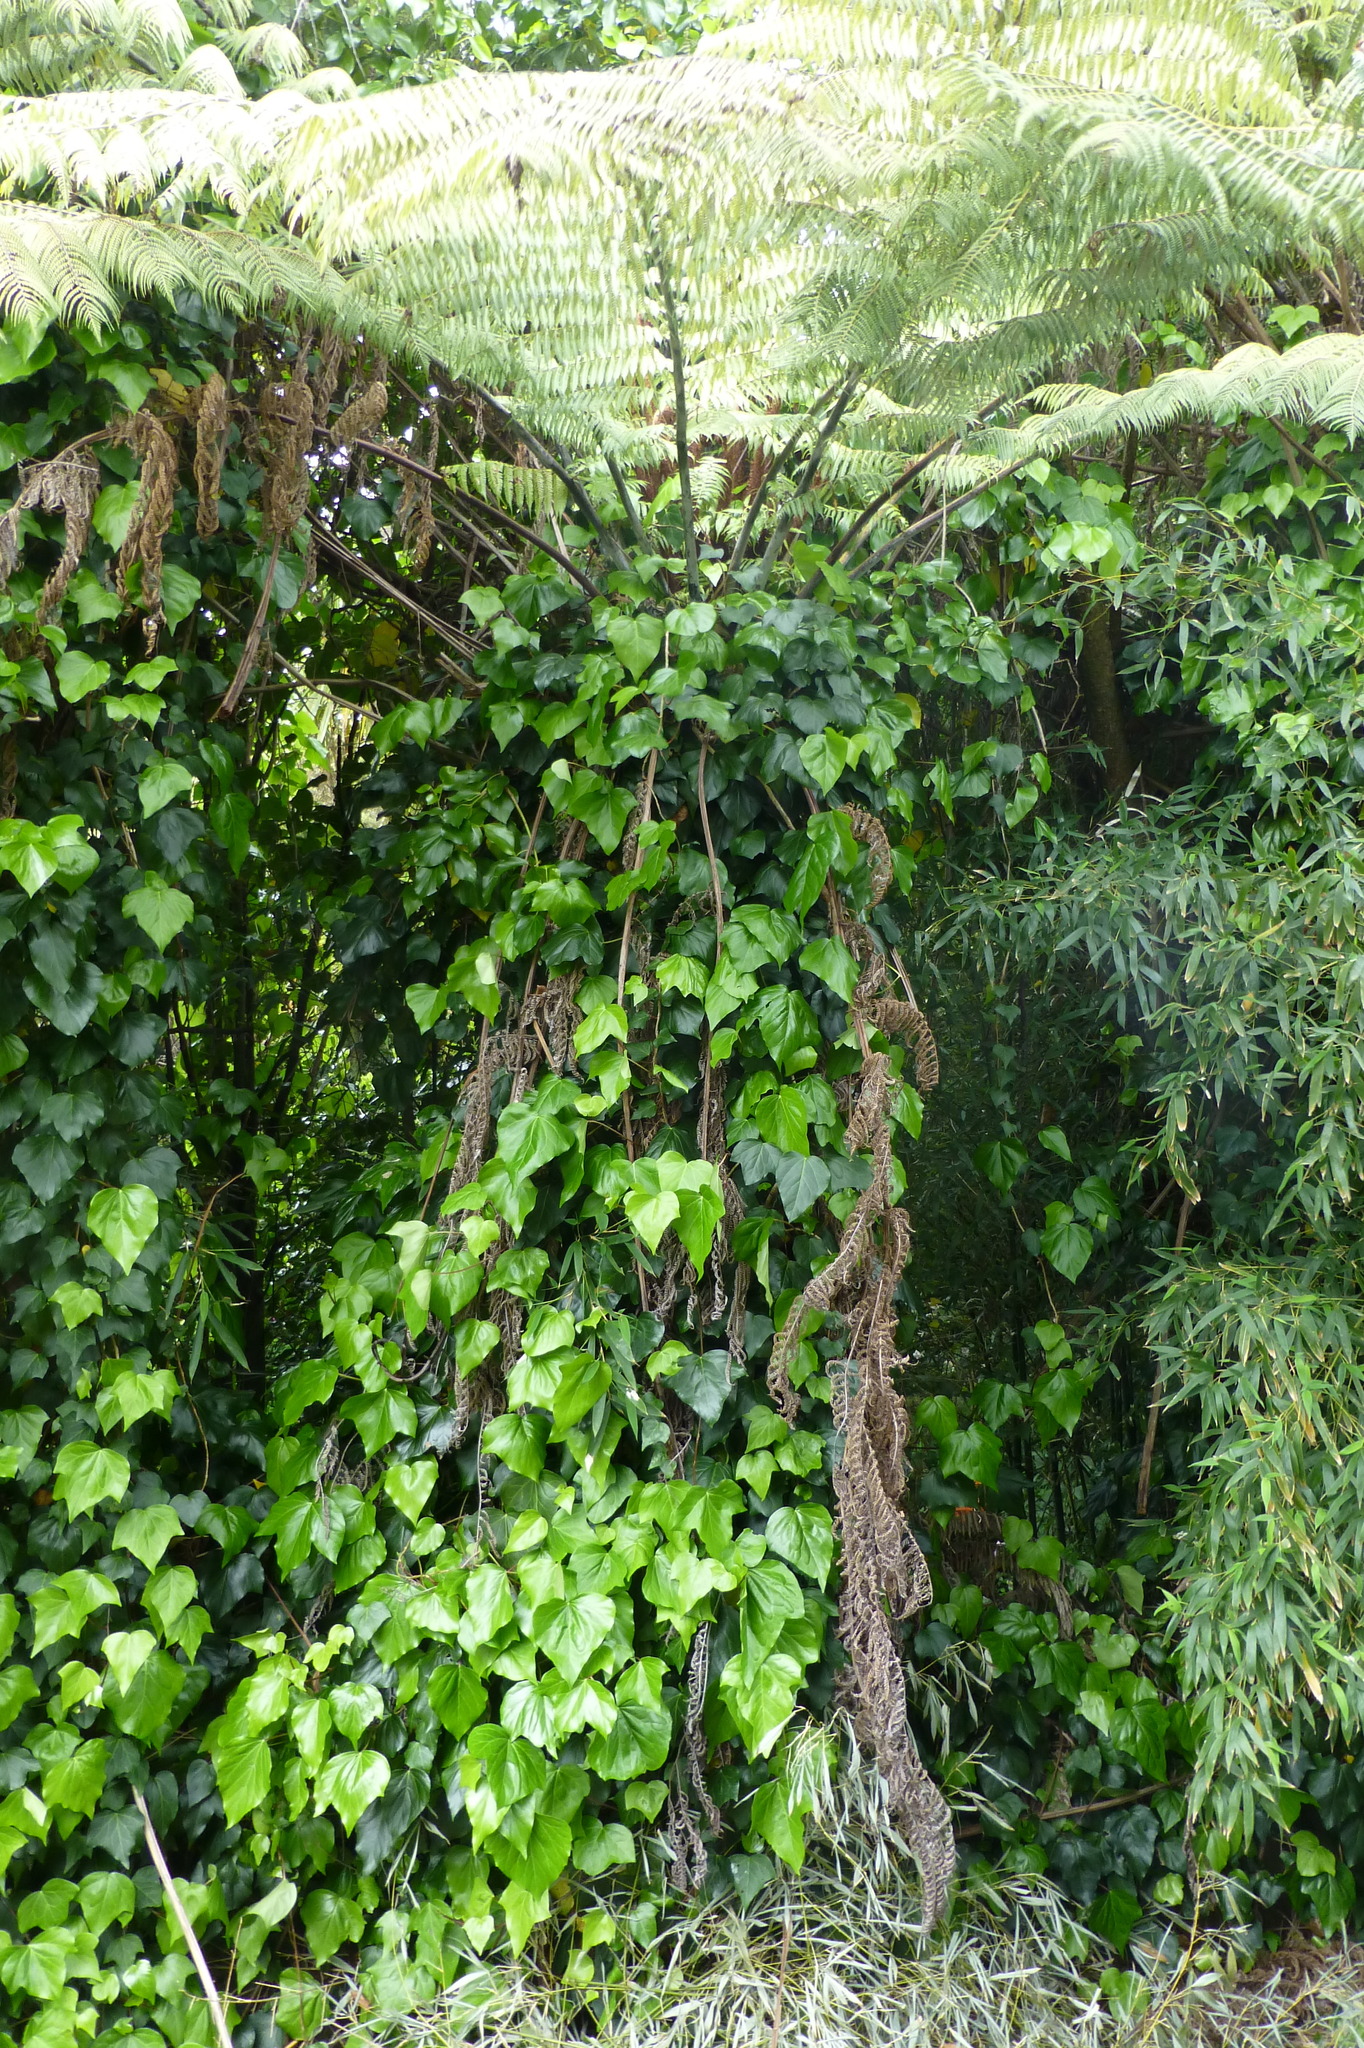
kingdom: Plantae
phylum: Tracheophyta
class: Magnoliopsida
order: Apiales
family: Araliaceae
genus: Hedera
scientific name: Hedera helix
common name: Ivy
